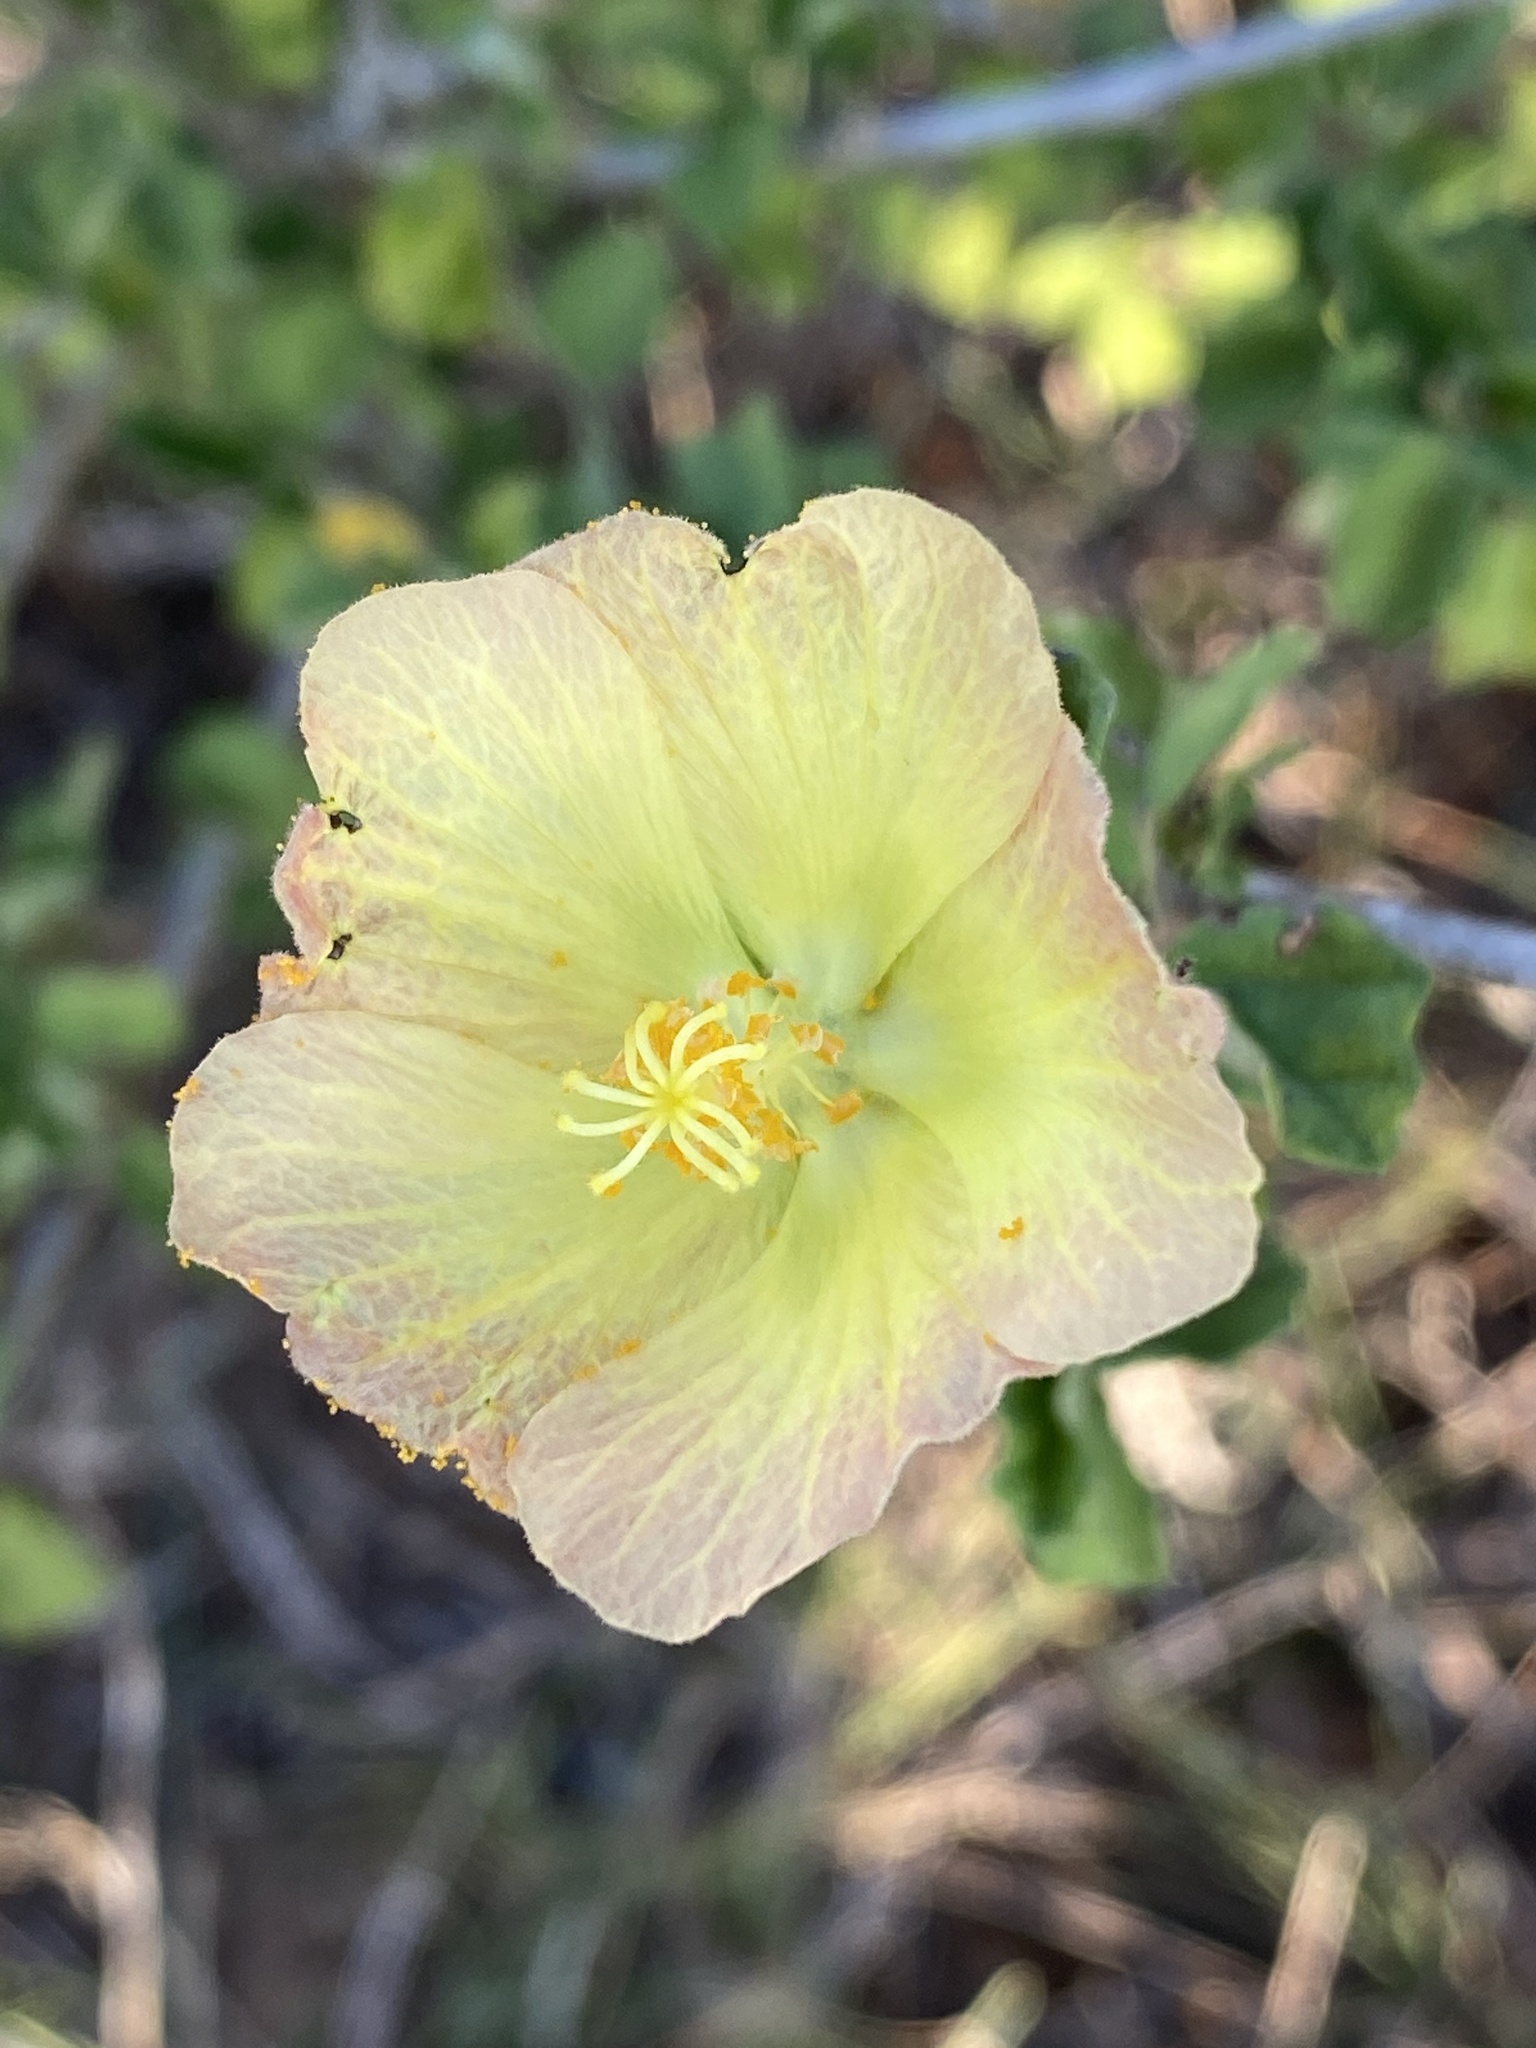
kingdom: Plantae
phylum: Tracheophyta
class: Magnoliopsida
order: Malvales
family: Malvaceae
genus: Pavonia
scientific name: Pavonia praemorsa
